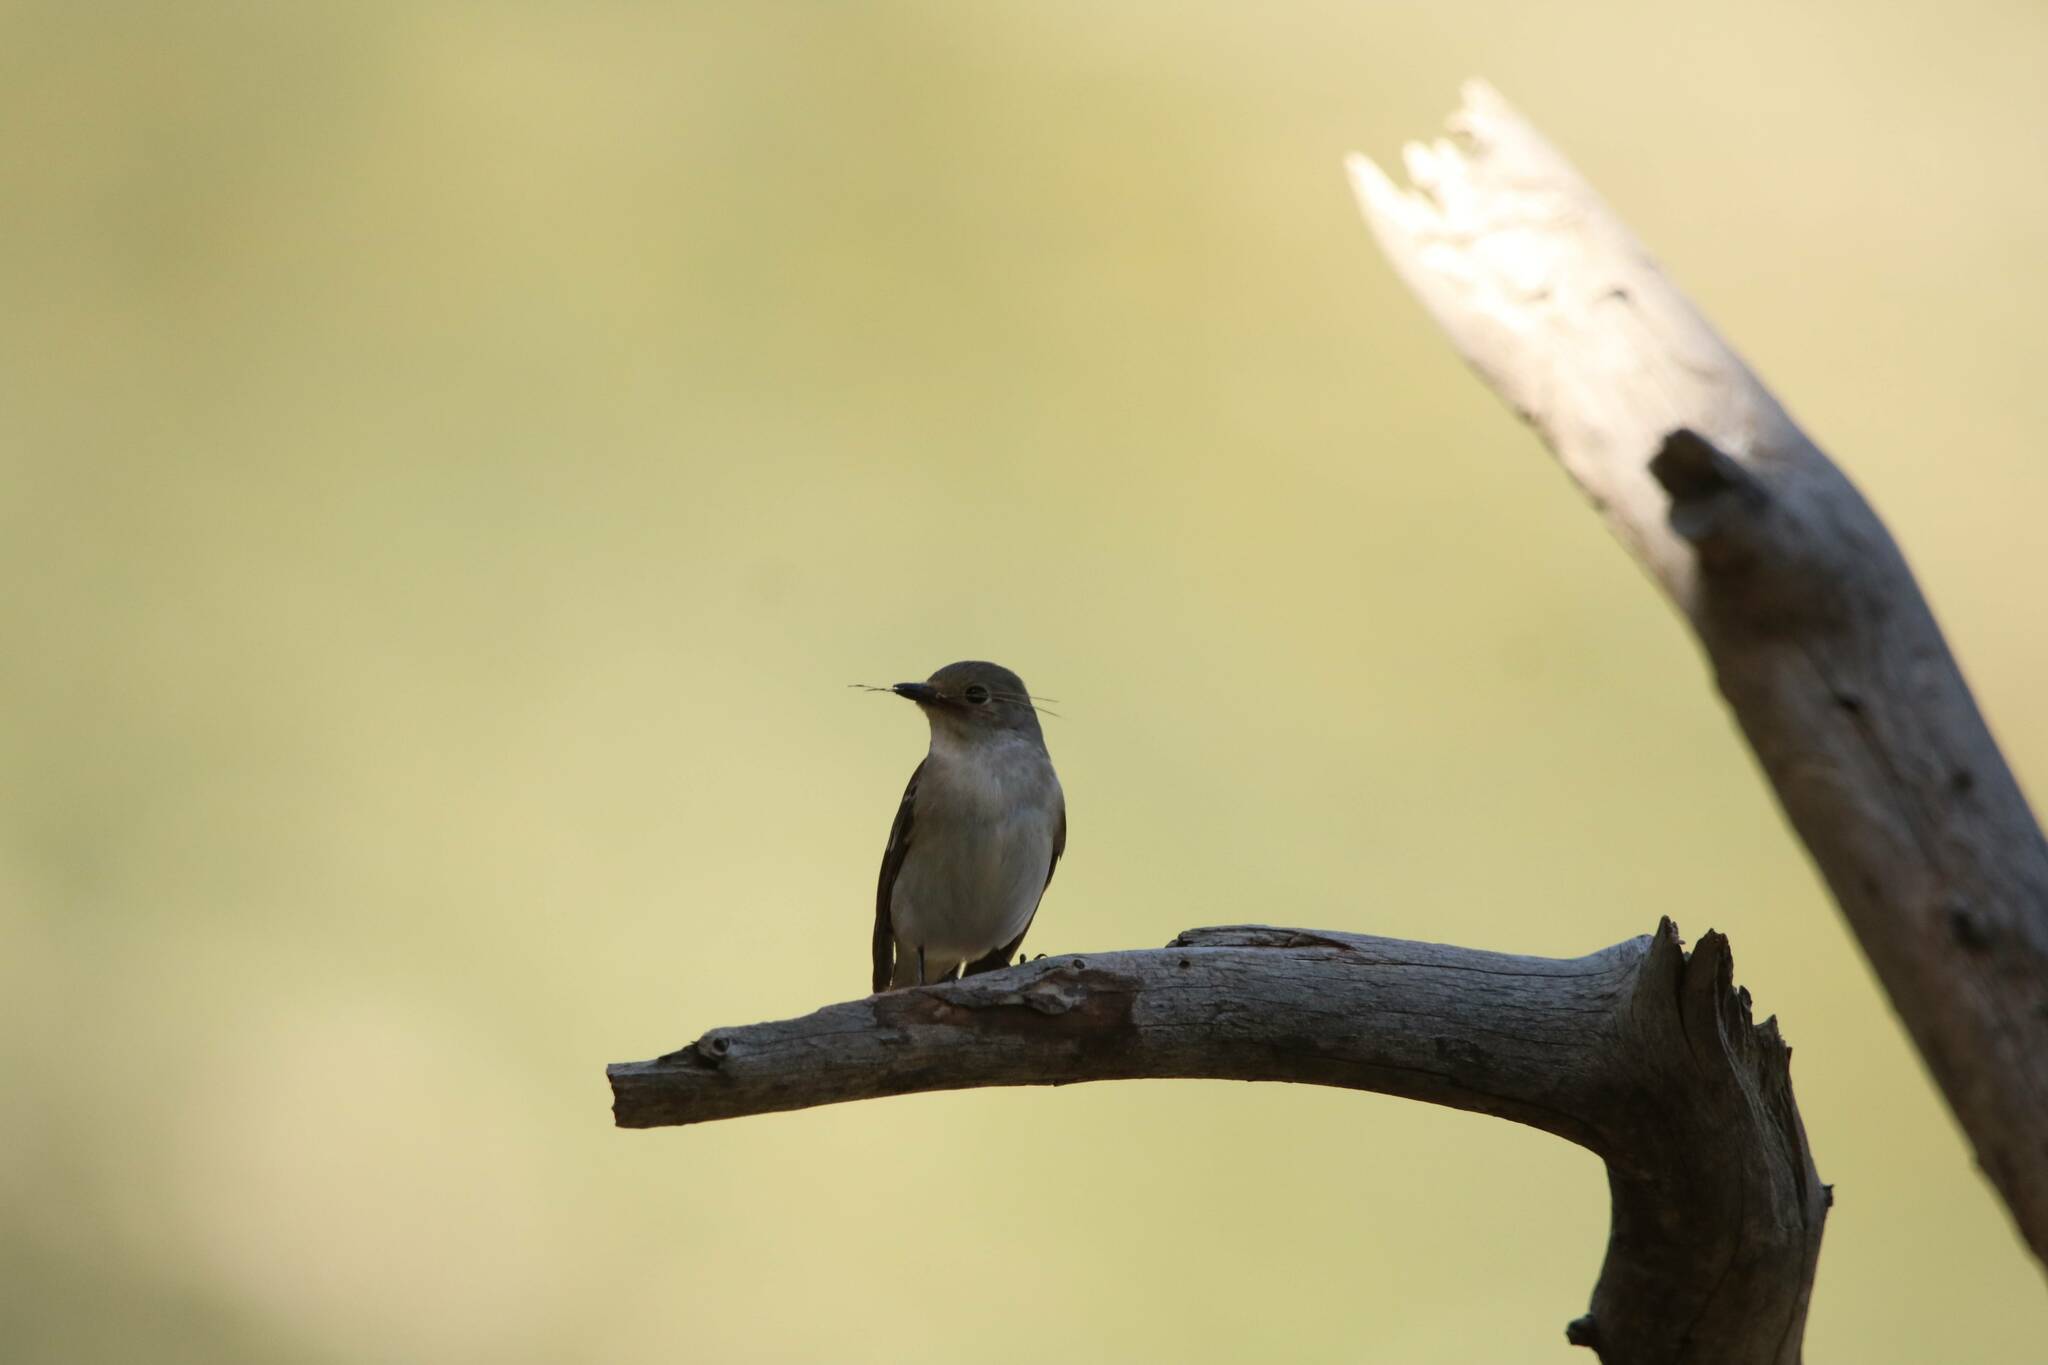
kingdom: Animalia
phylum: Chordata
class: Aves
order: Passeriformes
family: Muscicapidae
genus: Ficedula
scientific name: Ficedula speculigera
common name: Atlas pied flycatcher
